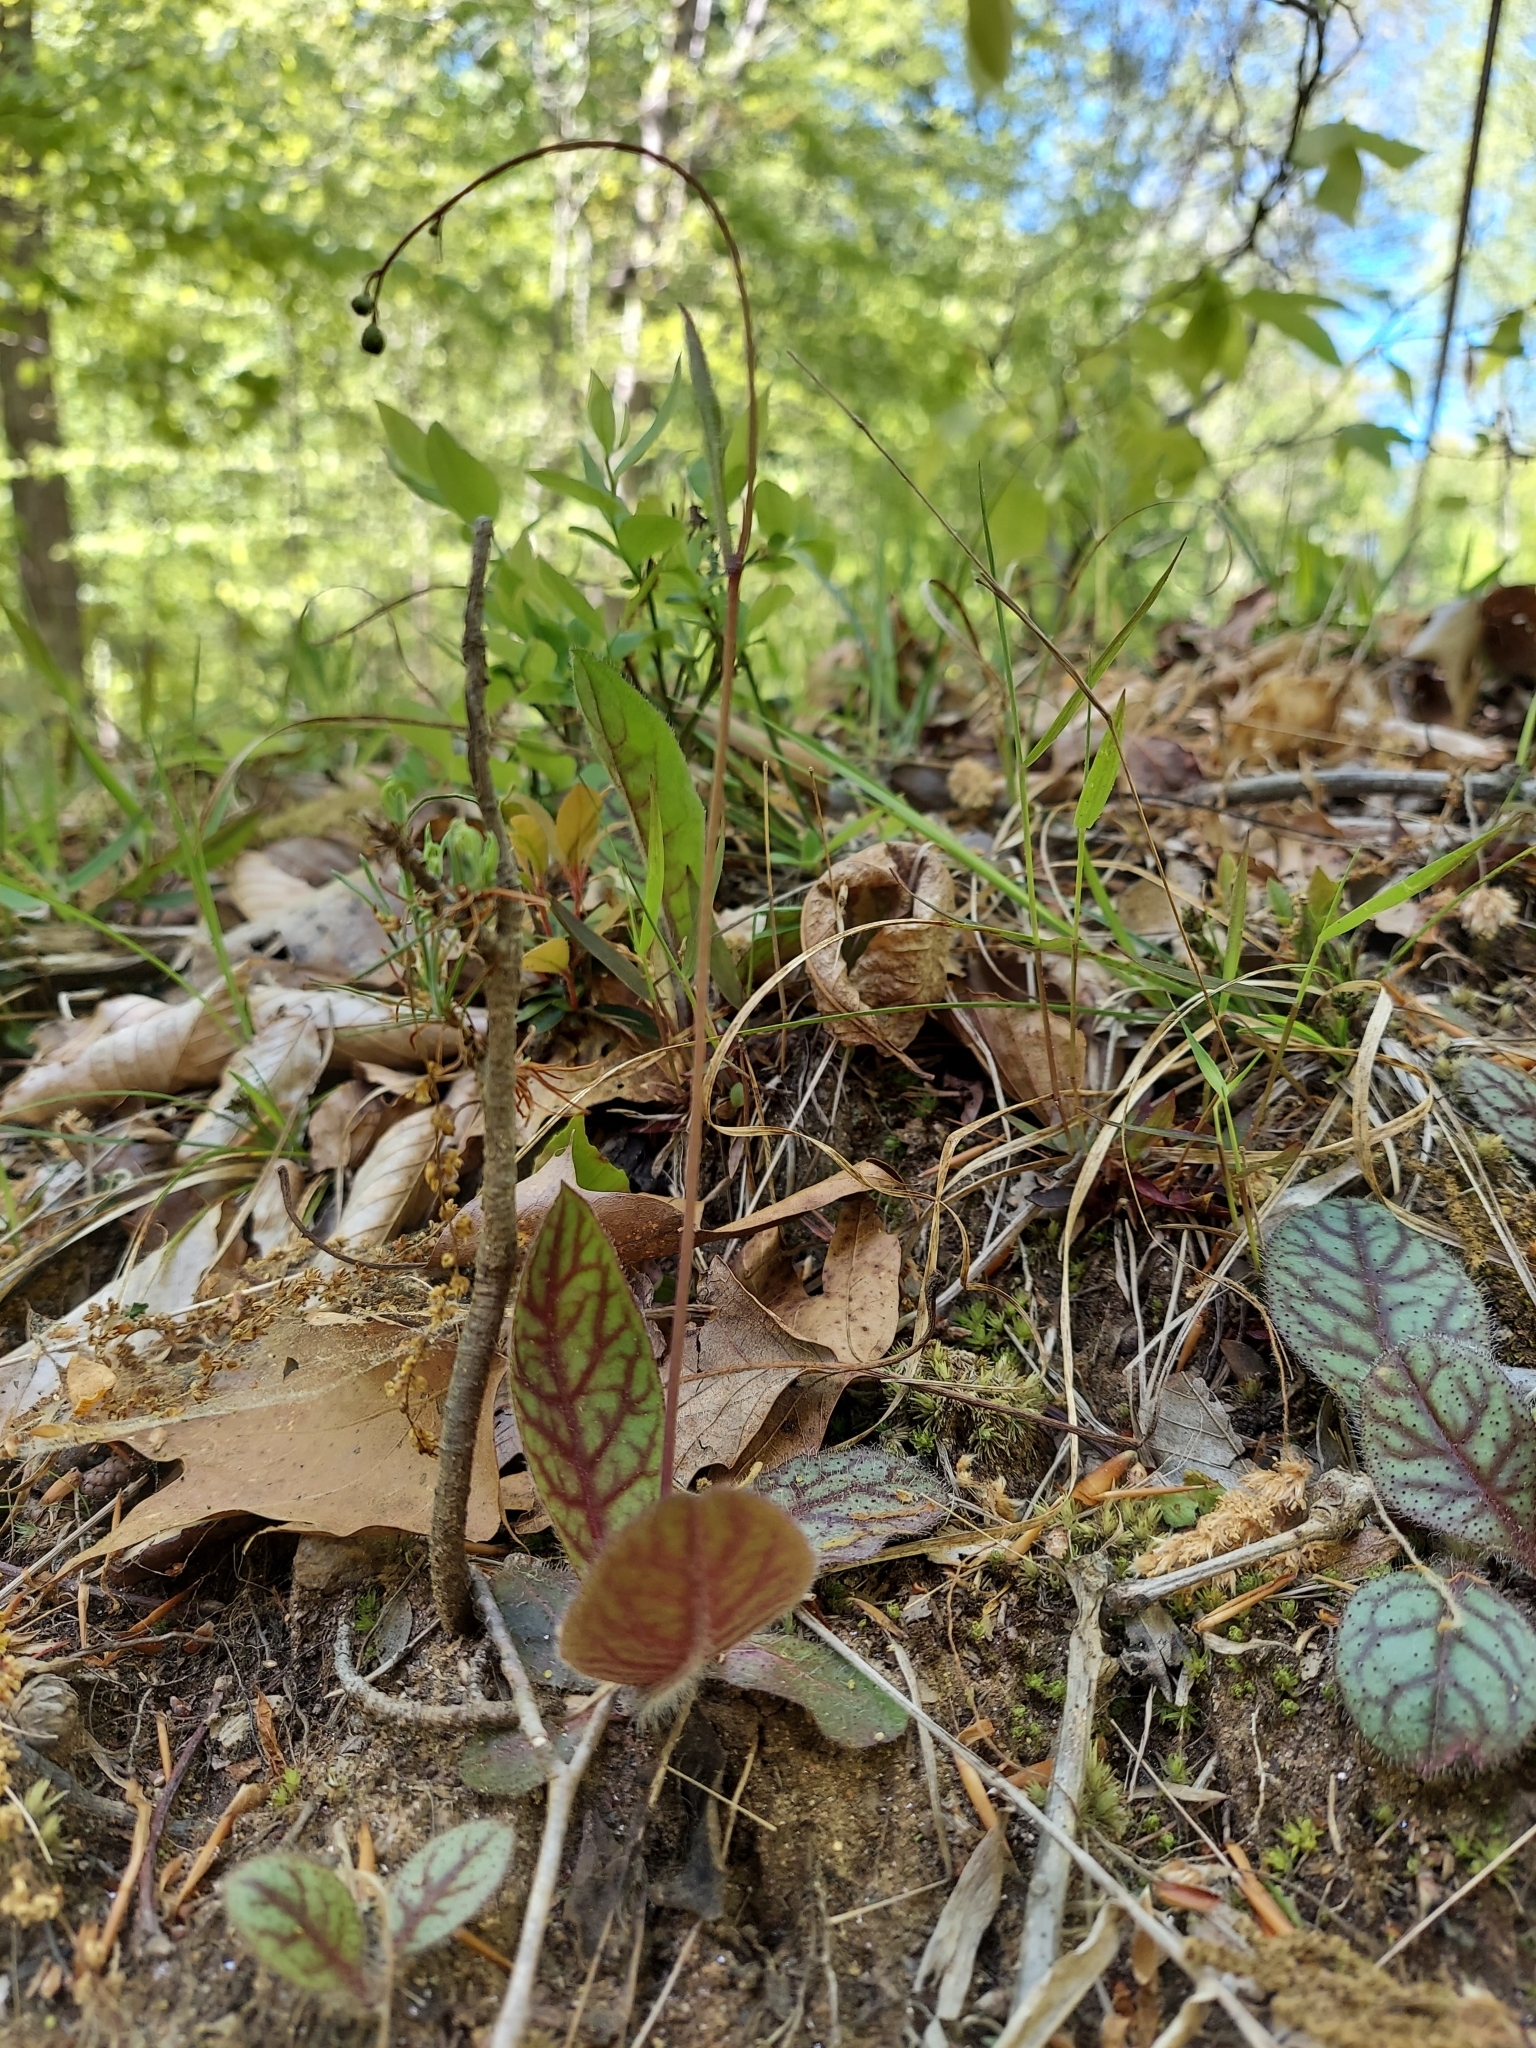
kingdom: Plantae
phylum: Tracheophyta
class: Magnoliopsida
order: Asterales
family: Asteraceae
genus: Hieracium
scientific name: Hieracium venosum
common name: Rattlesnake hawkweed
